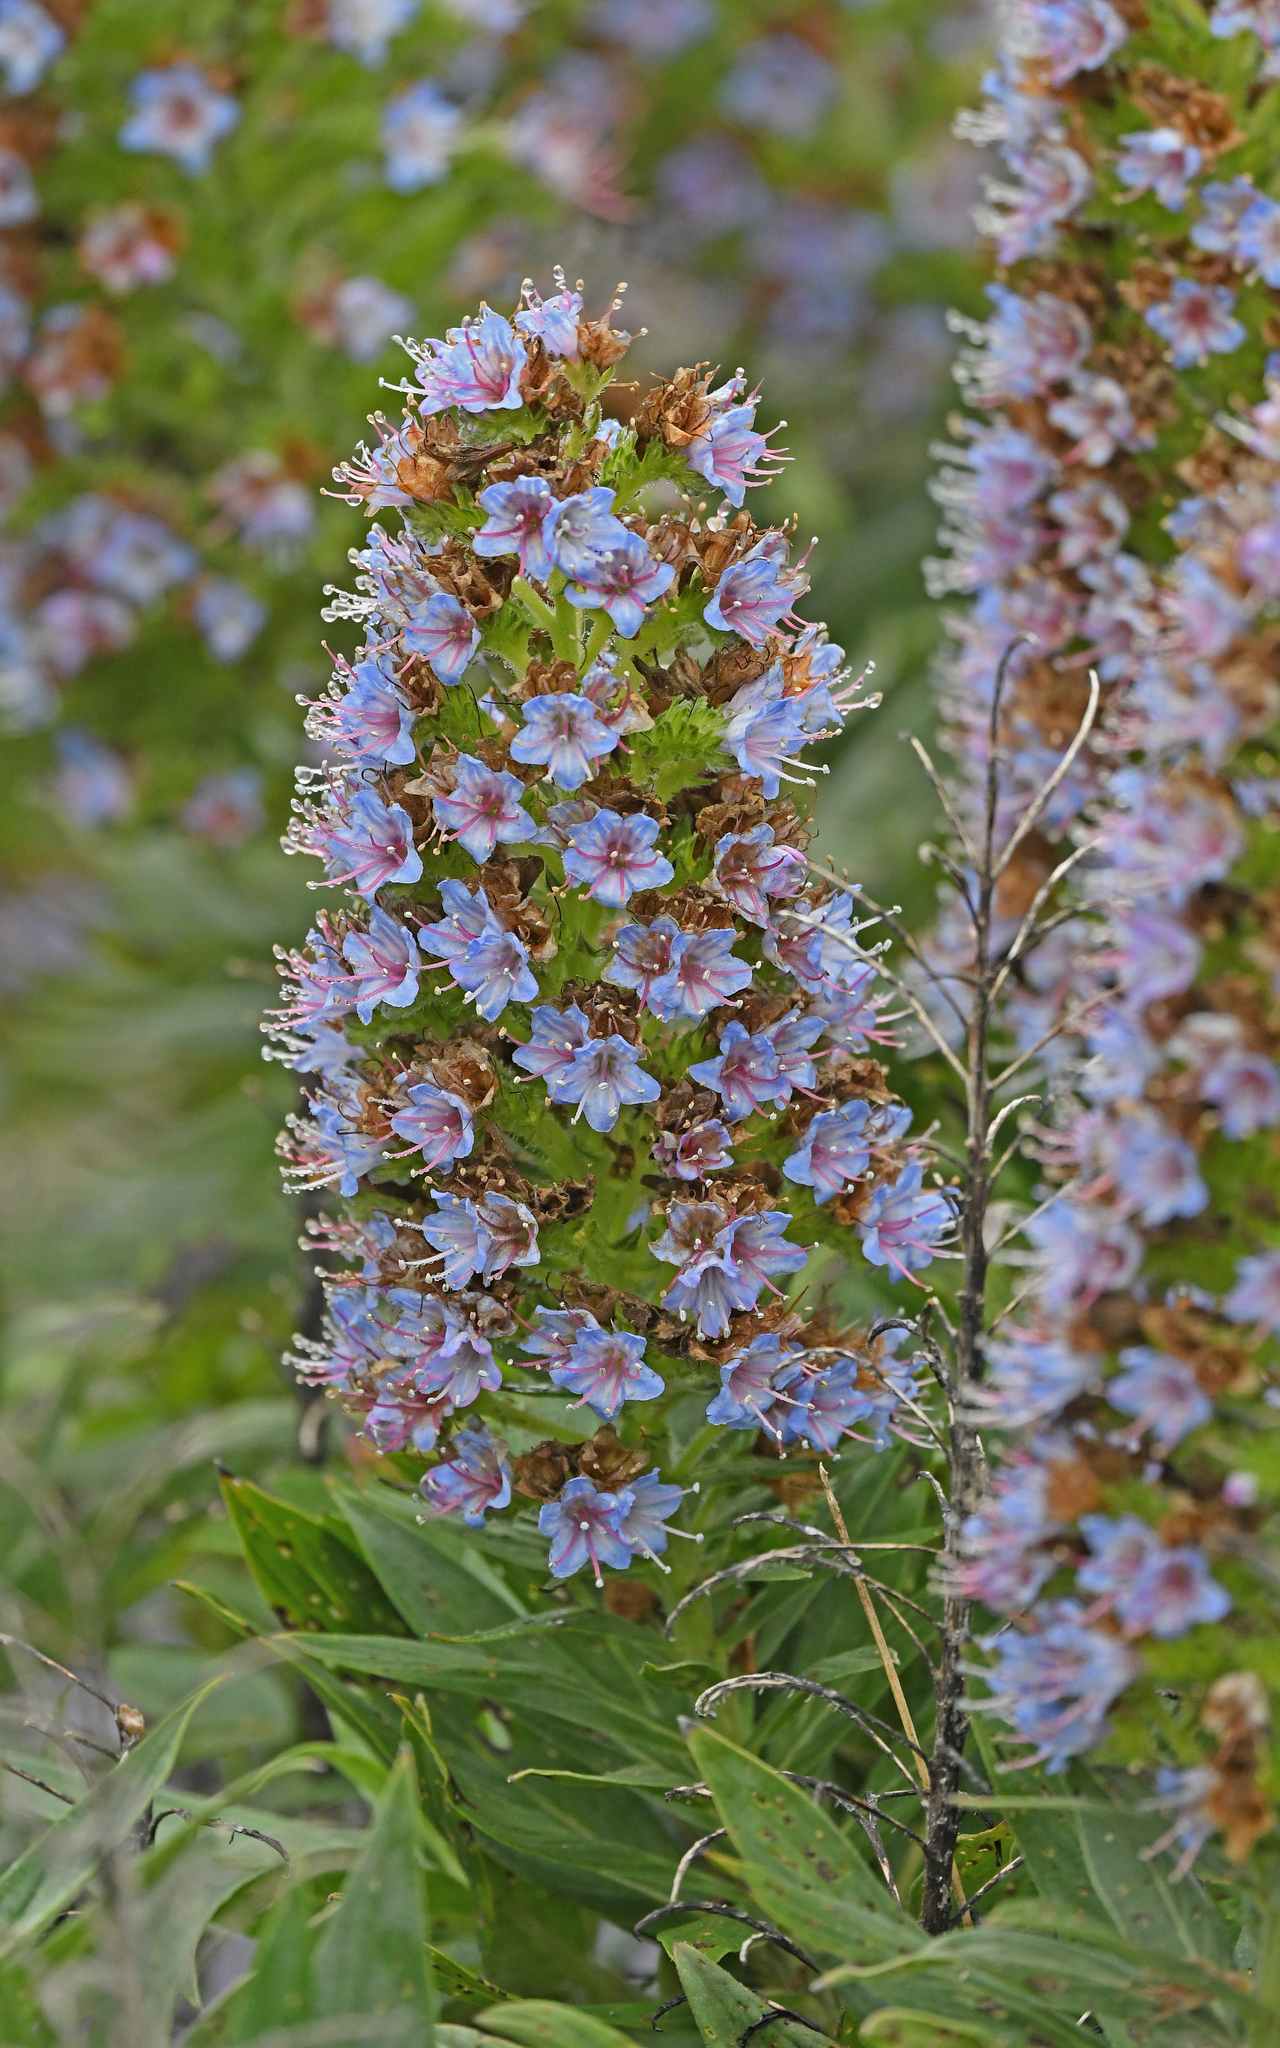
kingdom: Plantae
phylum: Tracheophyta
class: Magnoliopsida
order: Boraginales
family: Boraginaceae
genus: Echium
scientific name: Echium acanthocarpum
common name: Blue bugloss
